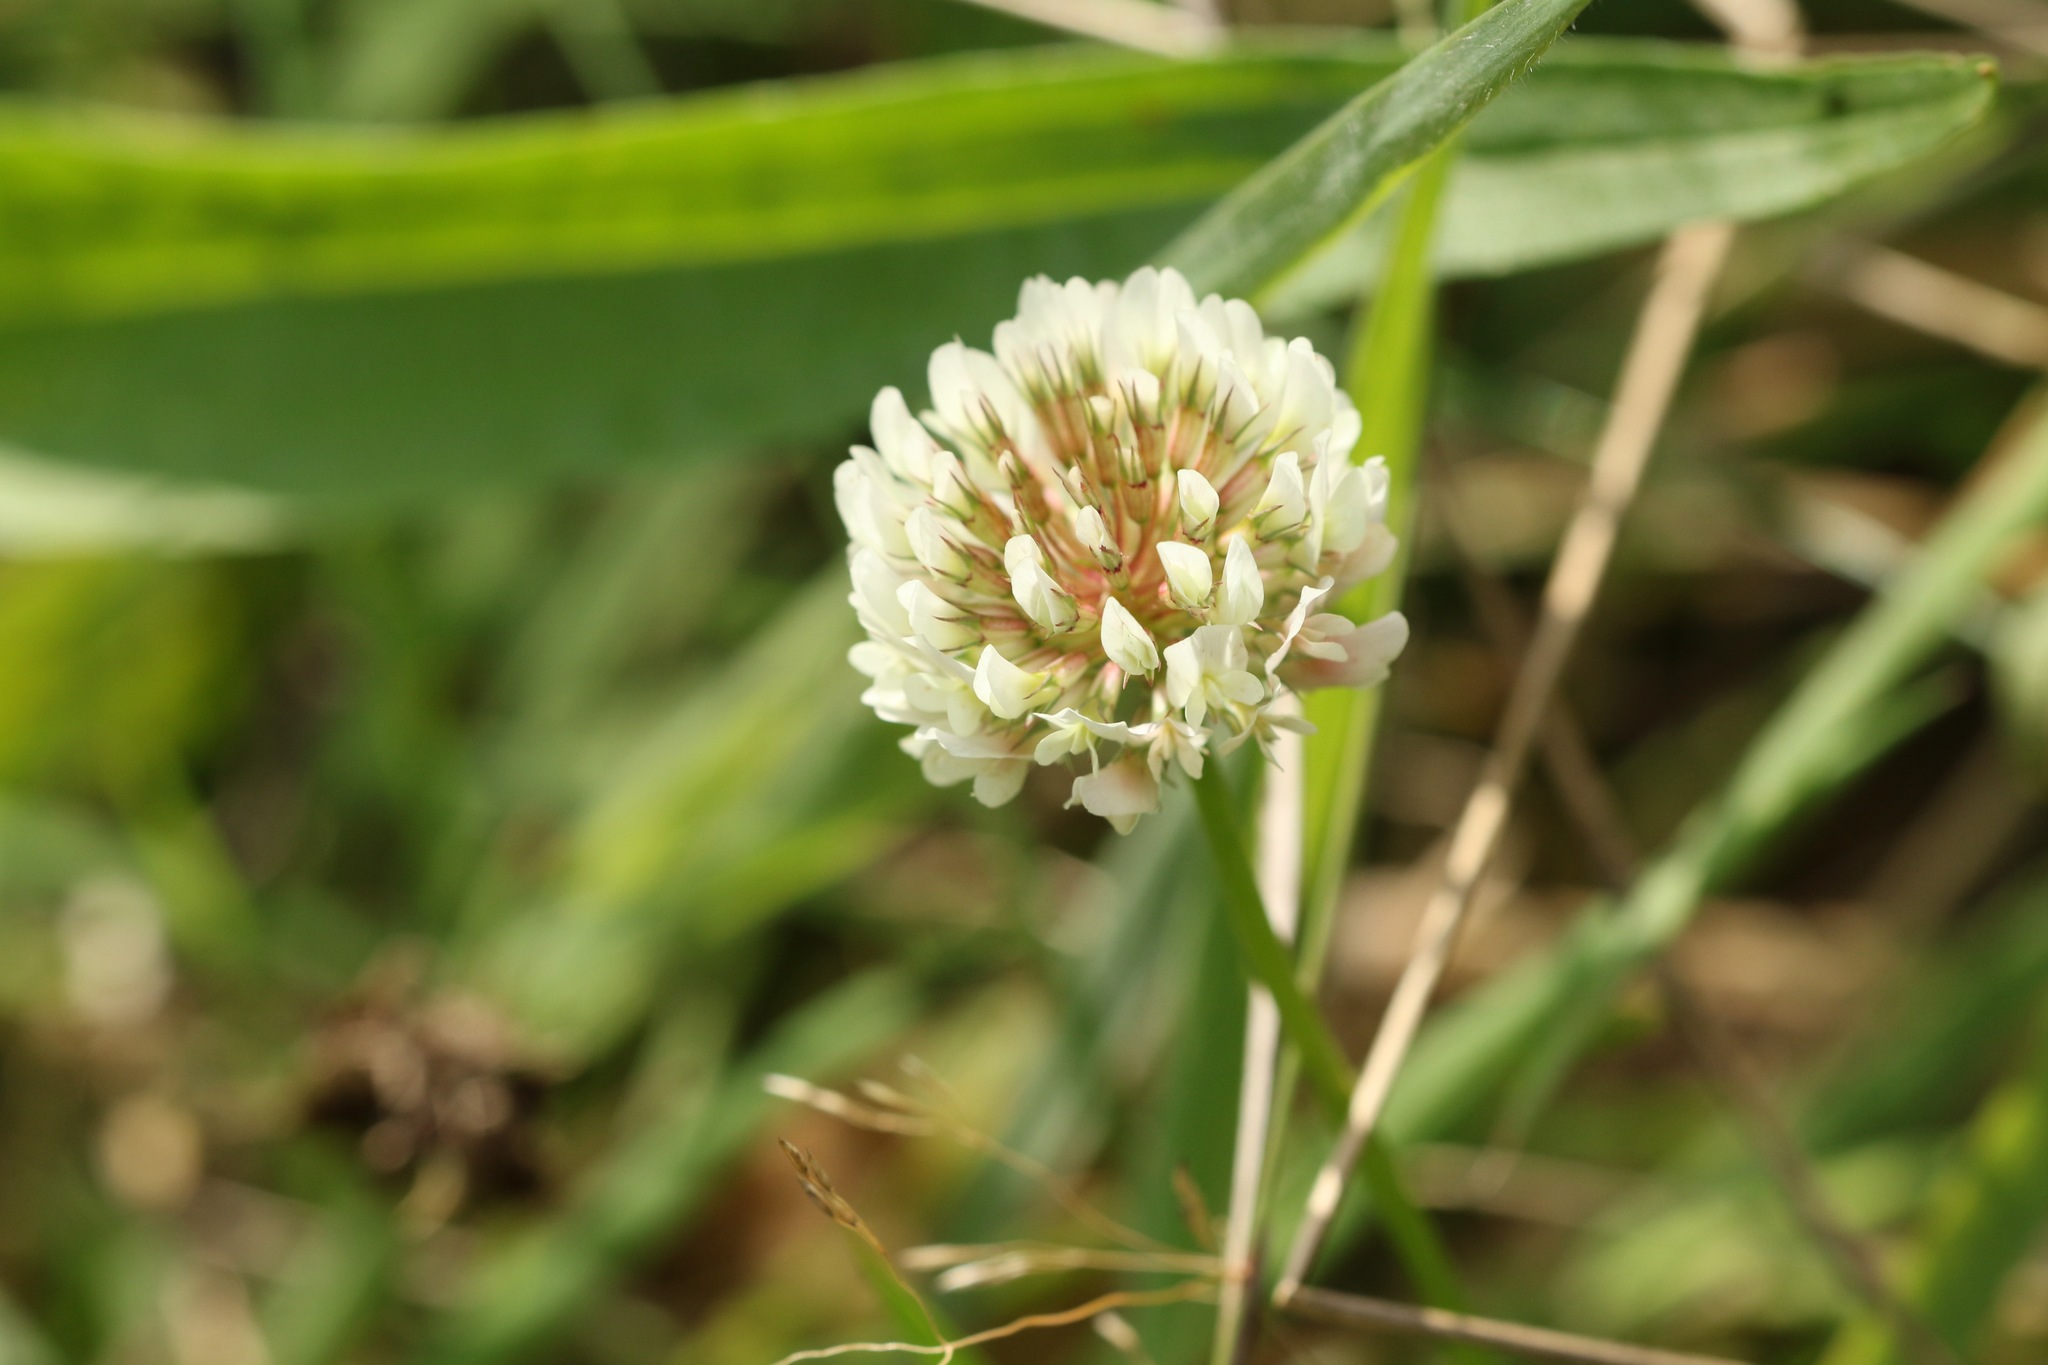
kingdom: Plantae
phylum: Tracheophyta
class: Magnoliopsida
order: Fabales
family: Fabaceae
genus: Trifolium
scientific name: Trifolium repens
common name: White clover
